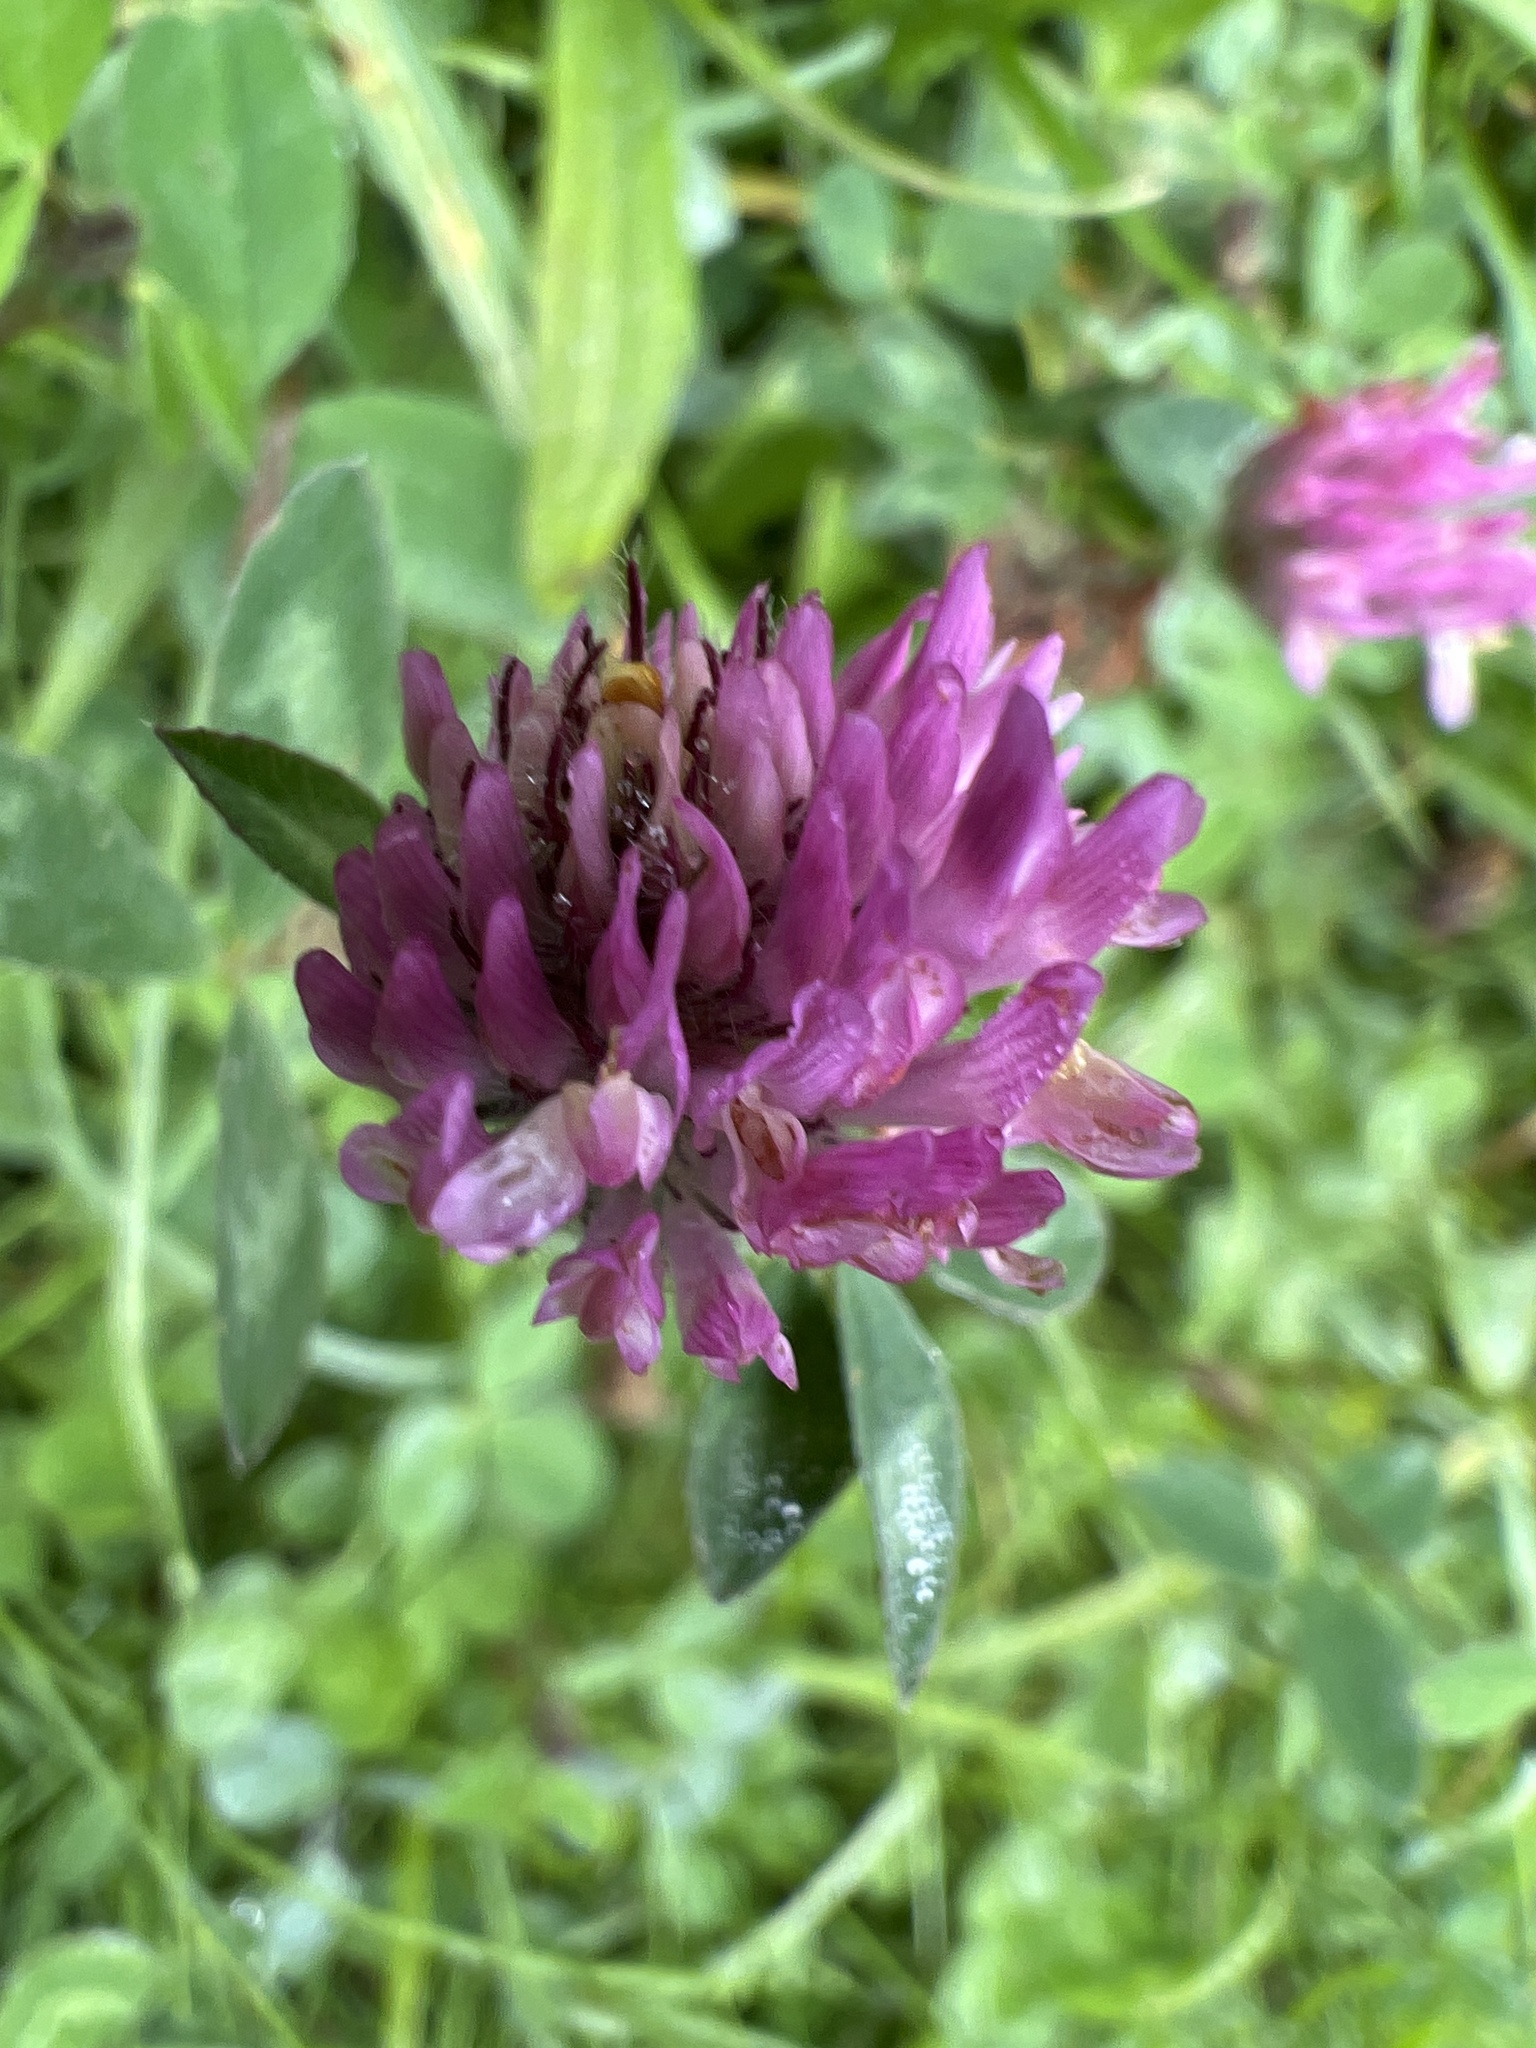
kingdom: Plantae
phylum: Tracheophyta
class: Magnoliopsida
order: Fabales
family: Fabaceae
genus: Trifolium
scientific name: Trifolium pratense
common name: Red clover
